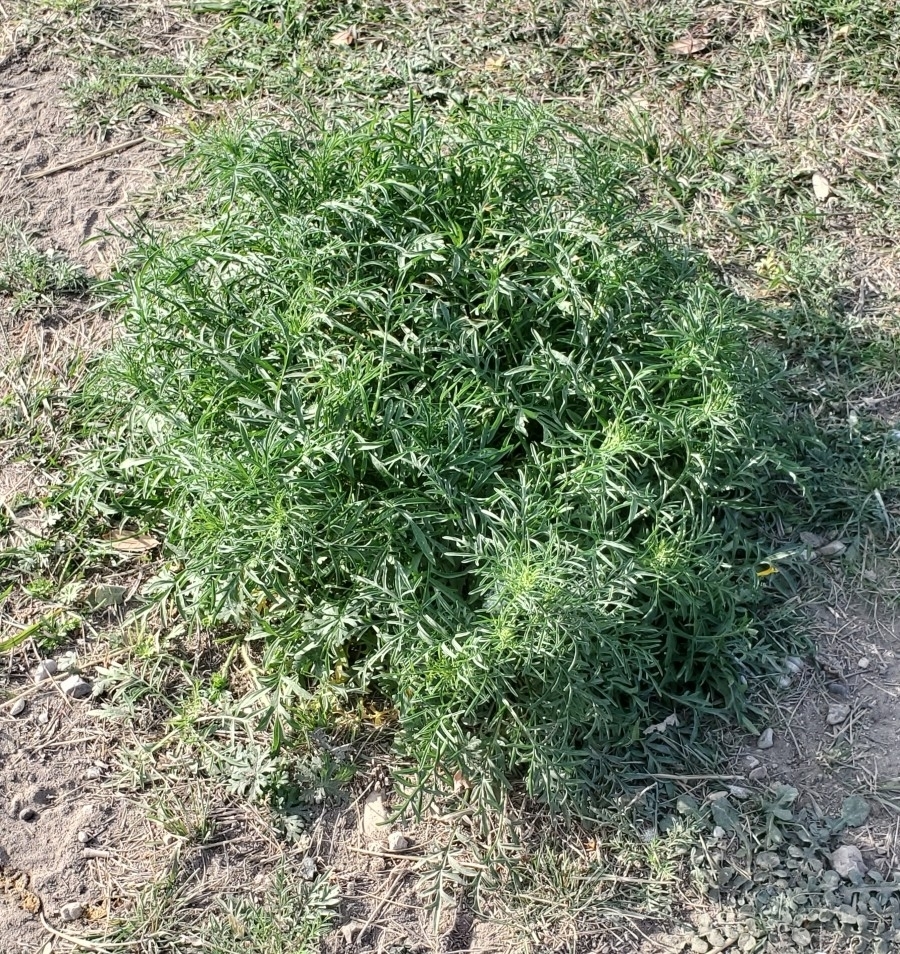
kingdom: Plantae
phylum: Tracheophyta
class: Magnoliopsida
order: Asterales
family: Asteraceae
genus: Ratibida
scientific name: Ratibida columnifera
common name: Prairie coneflower
